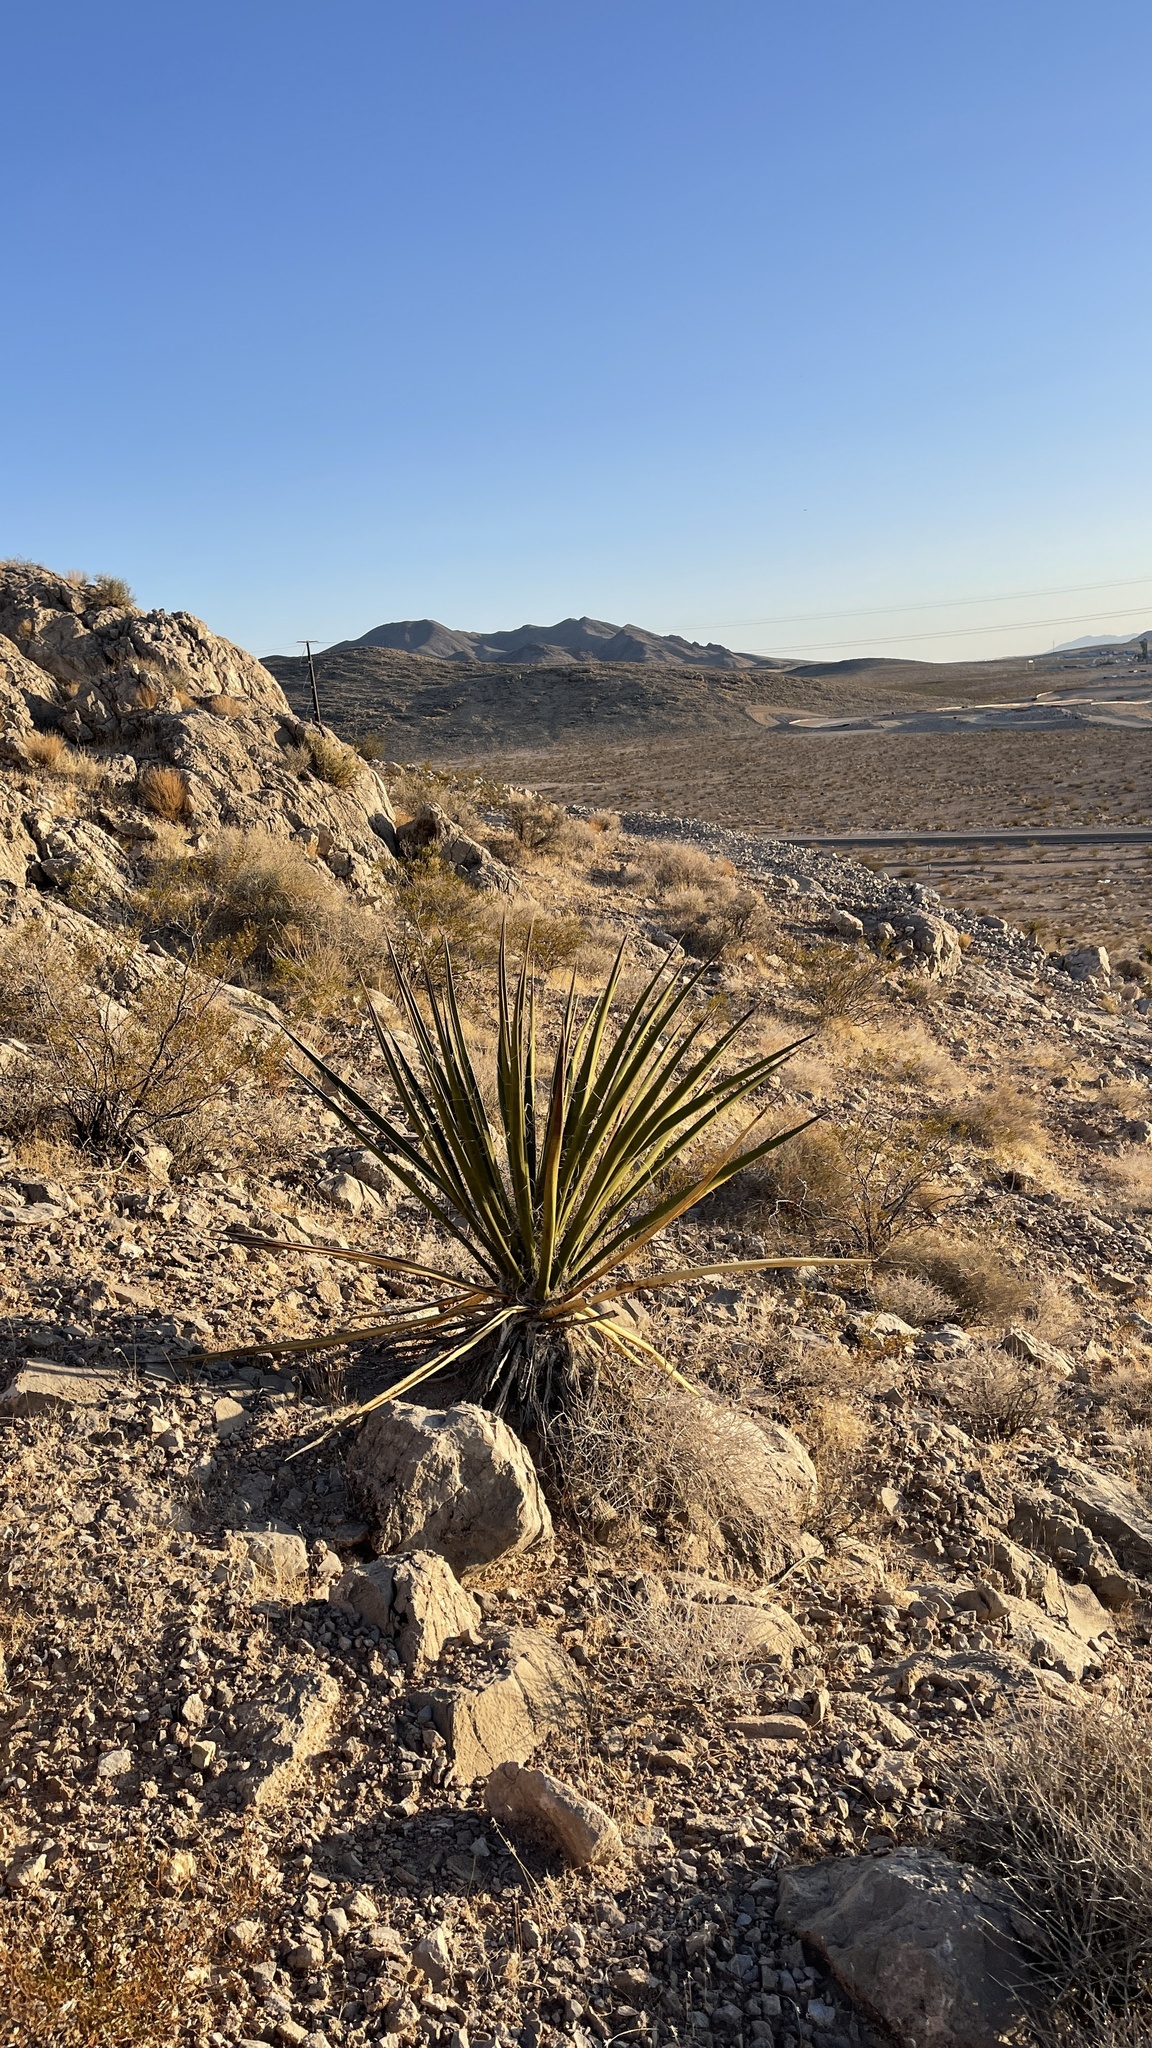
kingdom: Plantae
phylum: Tracheophyta
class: Liliopsida
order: Asparagales
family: Asparagaceae
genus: Yucca
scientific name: Yucca schidigera
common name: Mojave yucca
